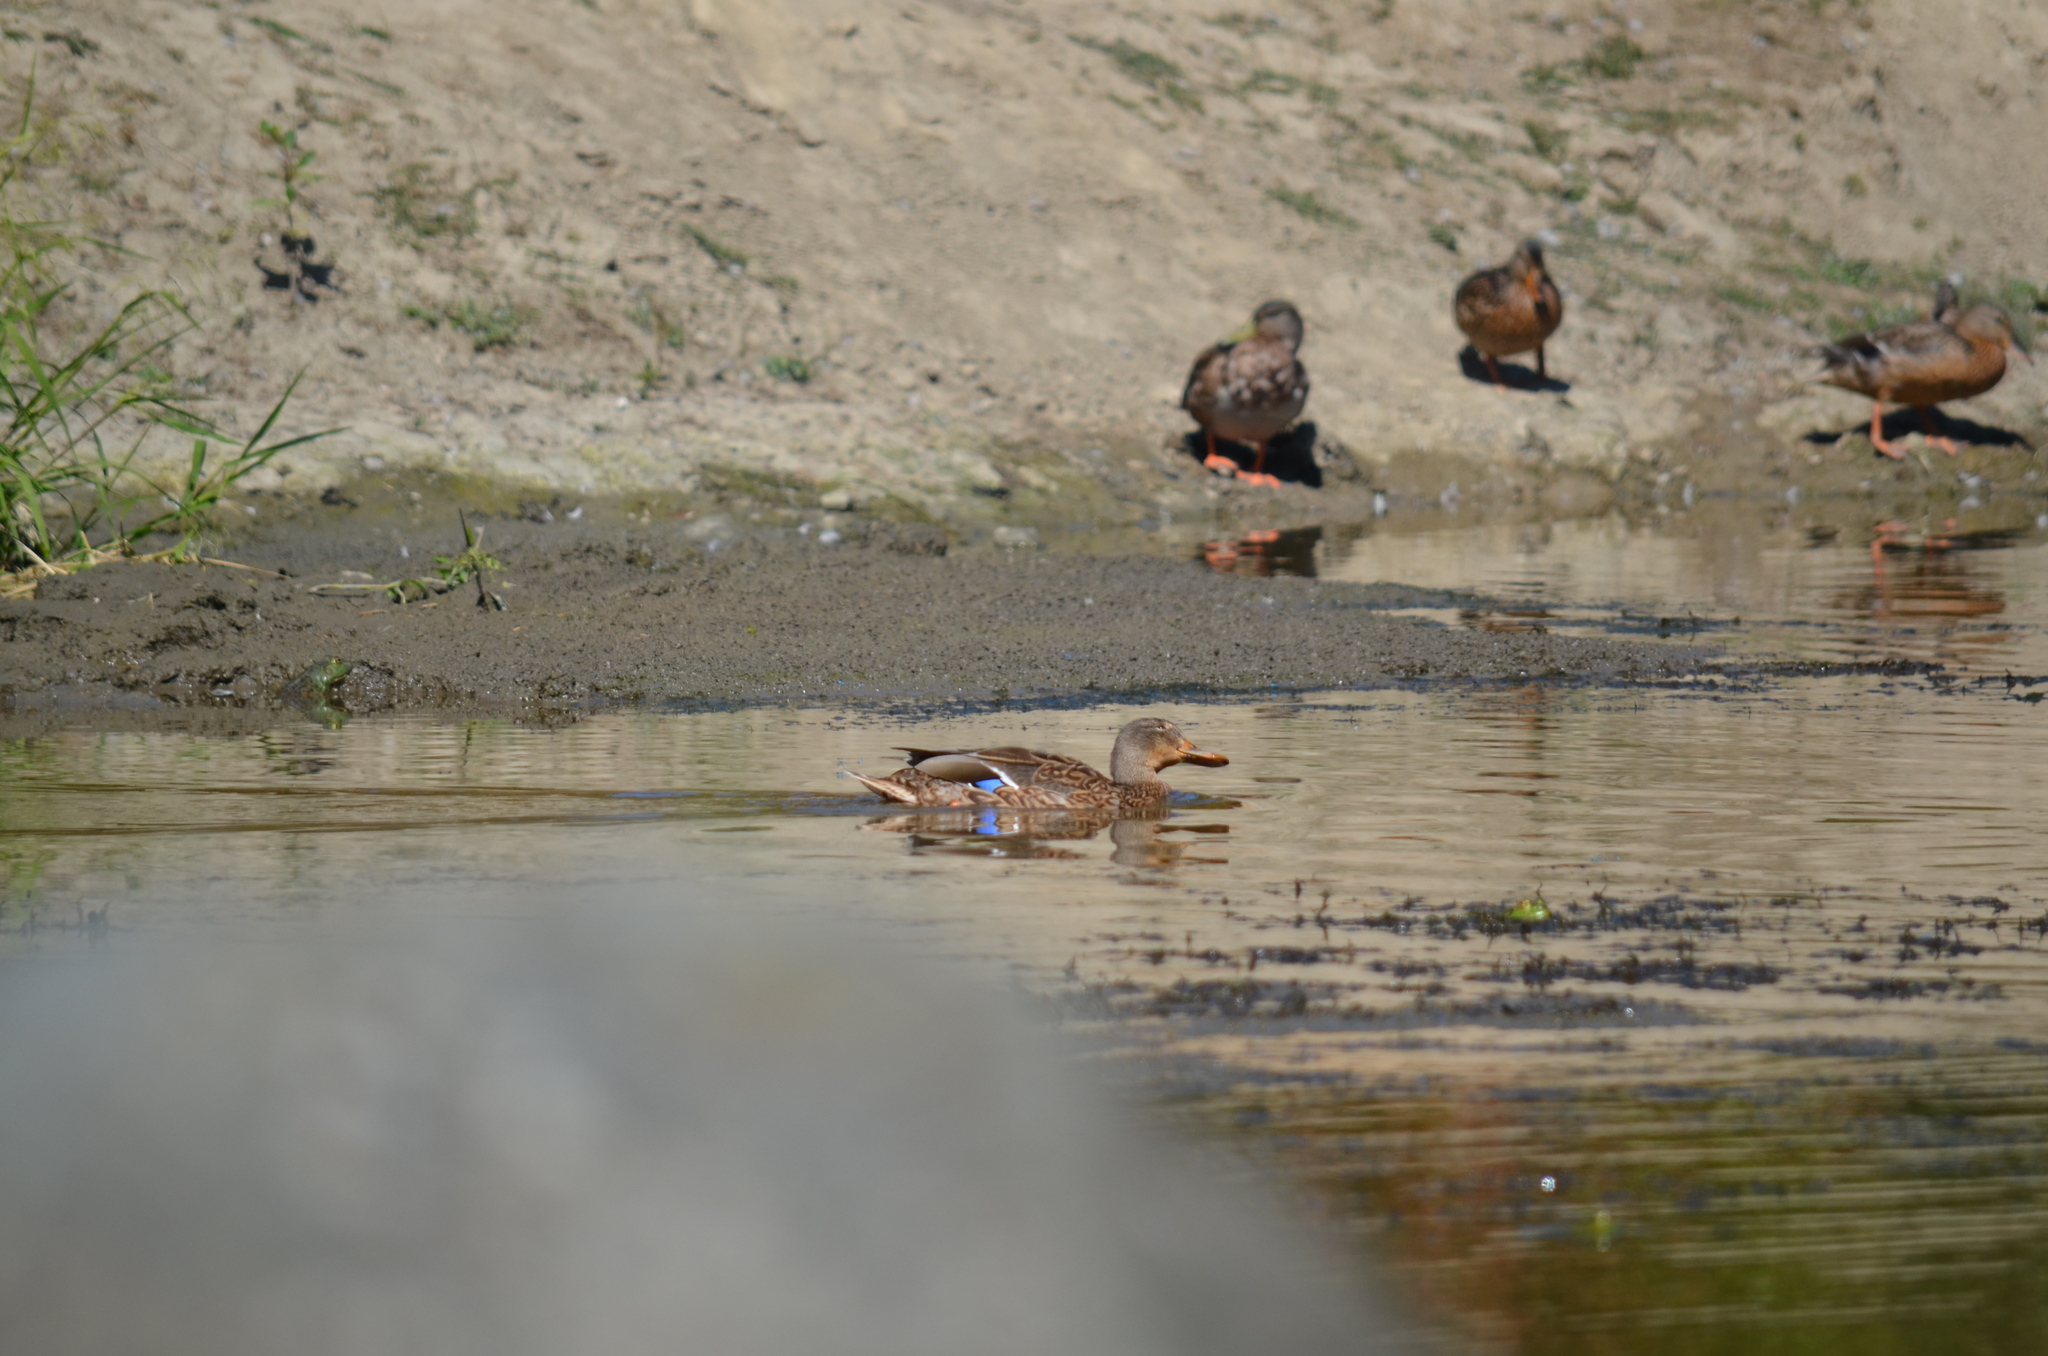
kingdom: Animalia
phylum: Chordata
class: Aves
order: Anseriformes
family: Anatidae
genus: Anas
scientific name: Anas platyrhynchos
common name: Mallard
